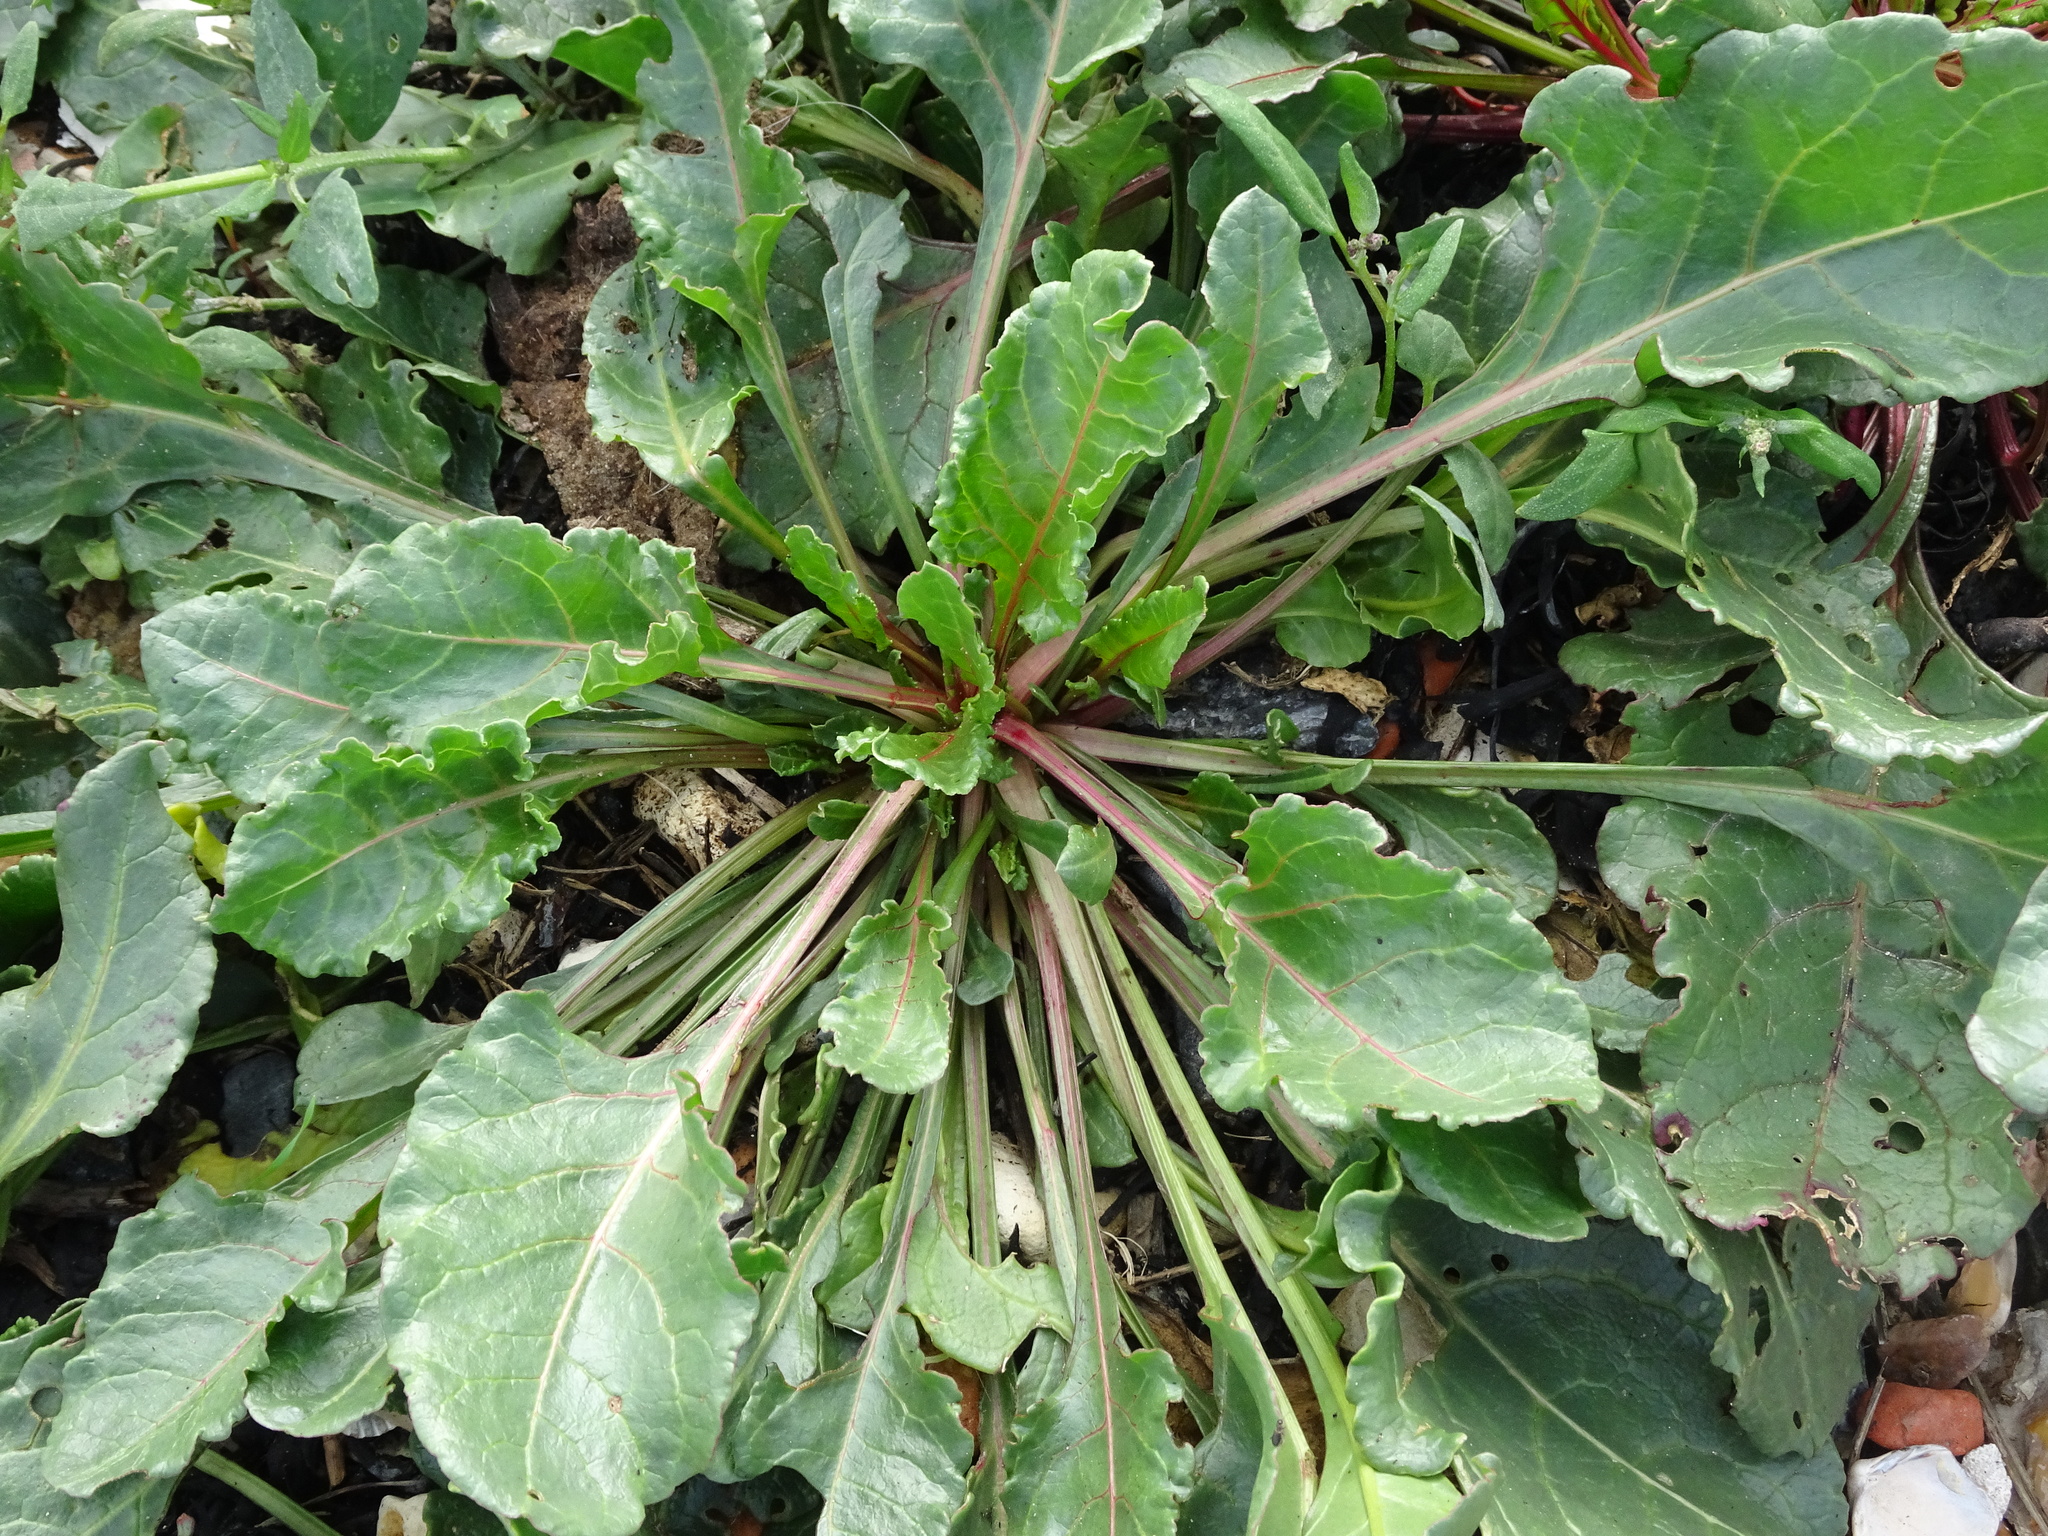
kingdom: Plantae
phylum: Tracheophyta
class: Magnoliopsida
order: Caryophyllales
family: Amaranthaceae
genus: Beta
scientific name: Beta vulgaris
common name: Beet
